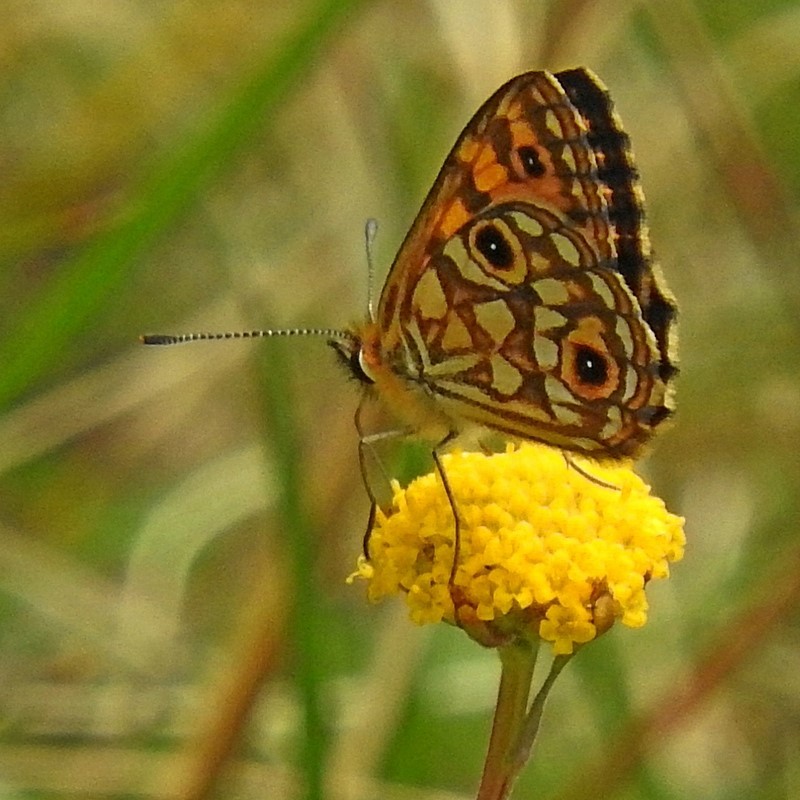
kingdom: Animalia
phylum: Arthropoda
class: Insecta
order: Lepidoptera
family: Nymphalidae
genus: Oreixenica
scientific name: Oreixenica orichora
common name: Orichora brown
